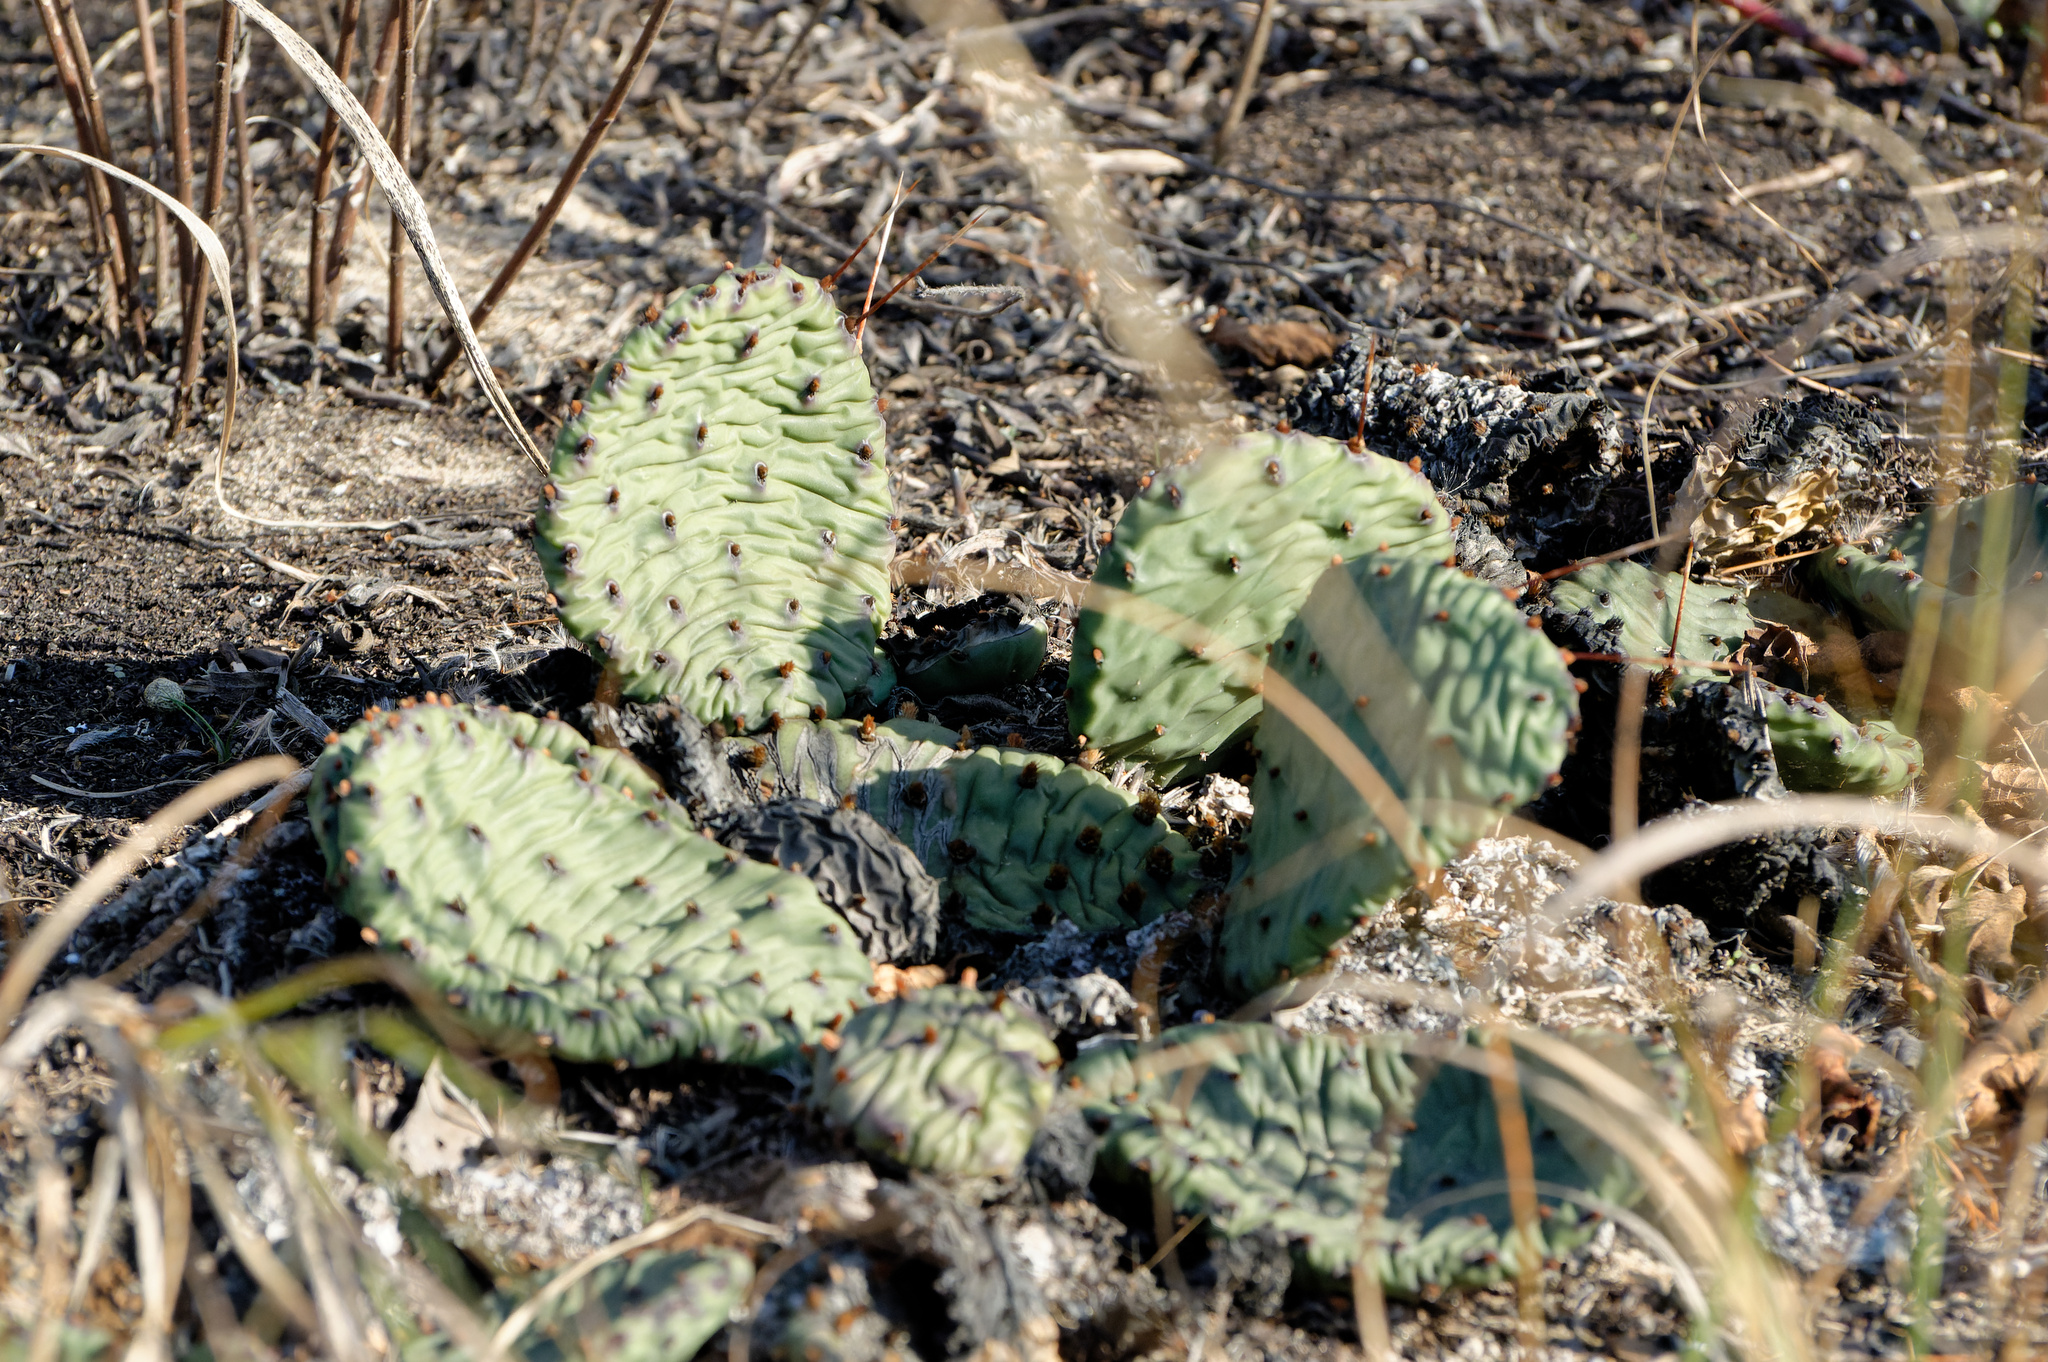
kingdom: Plantae
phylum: Tracheophyta
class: Magnoliopsida
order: Caryophyllales
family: Cactaceae
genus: Opuntia
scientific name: Opuntia humifusa
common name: Eastern prickly-pear
